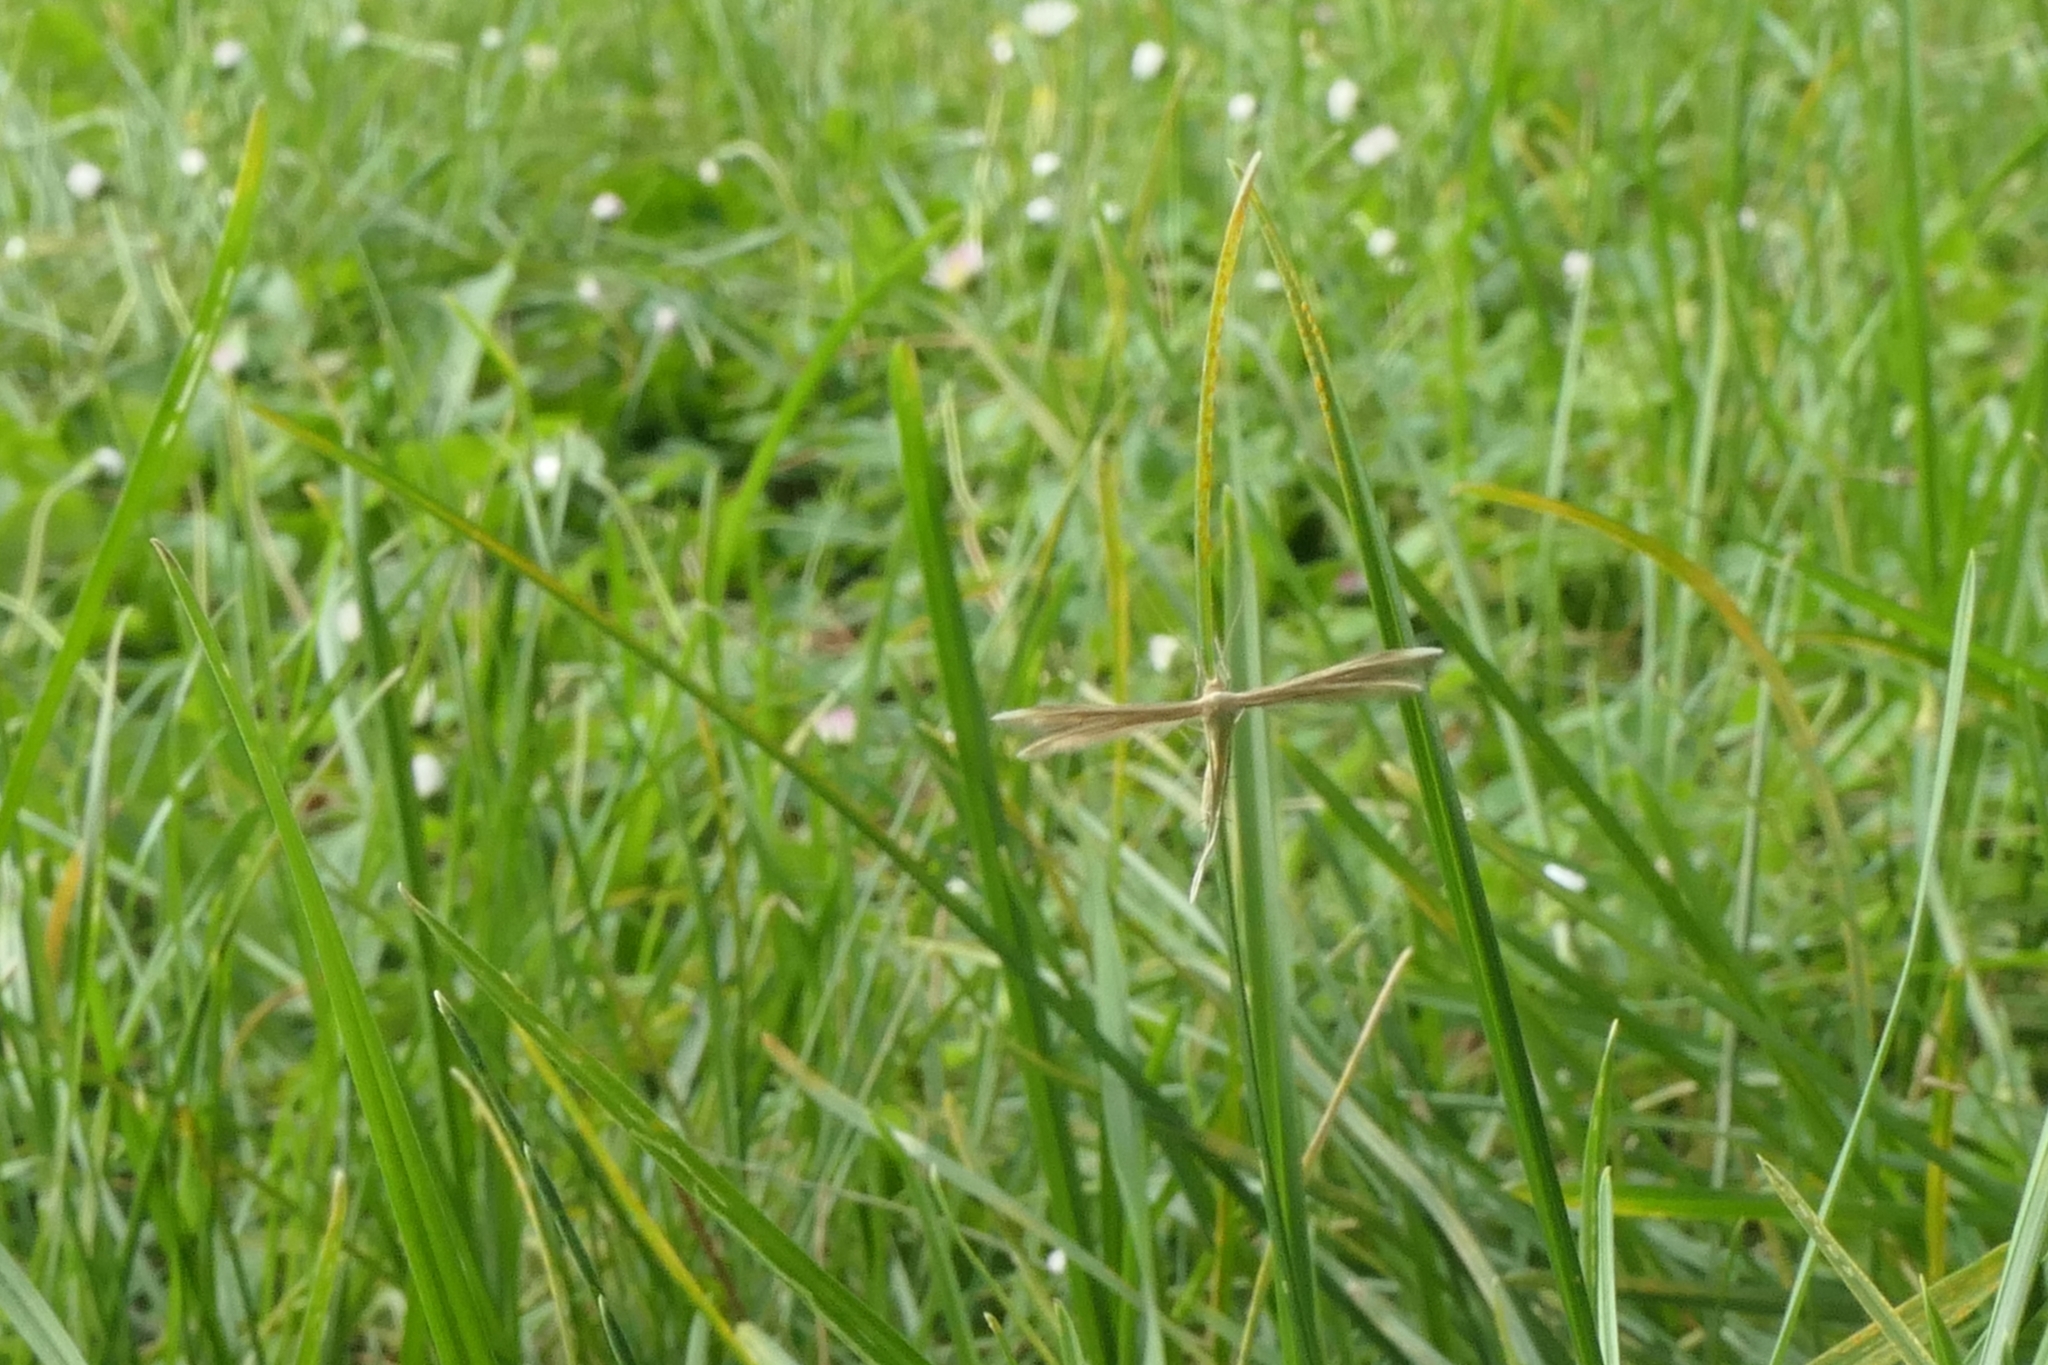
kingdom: Animalia
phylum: Arthropoda
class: Insecta
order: Lepidoptera
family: Pterophoridae
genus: Pterophorus
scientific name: Pterophorus innotatalis
